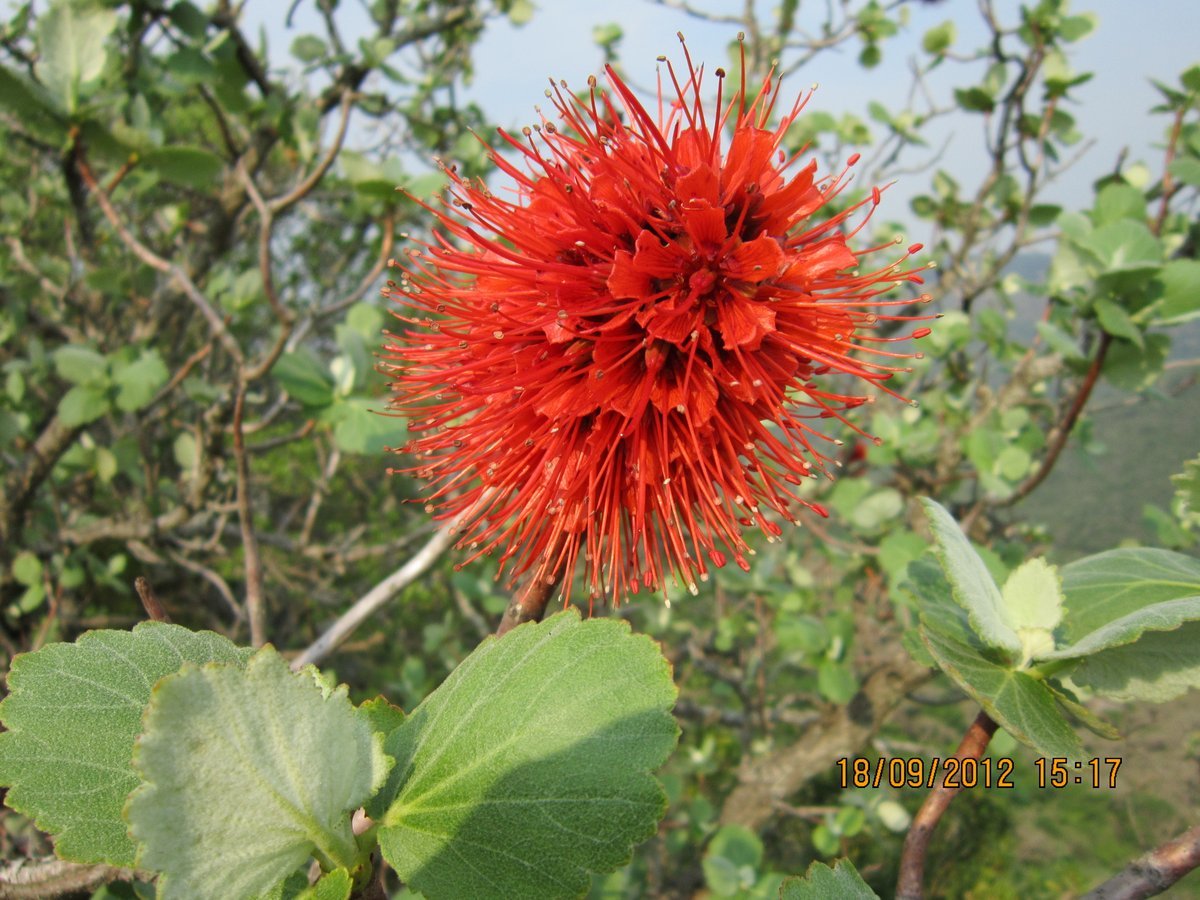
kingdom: Plantae
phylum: Tracheophyta
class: Magnoliopsida
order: Geraniales
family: Francoaceae
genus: Greyia
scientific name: Greyia radlkoferi
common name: Natal bottlebrush
